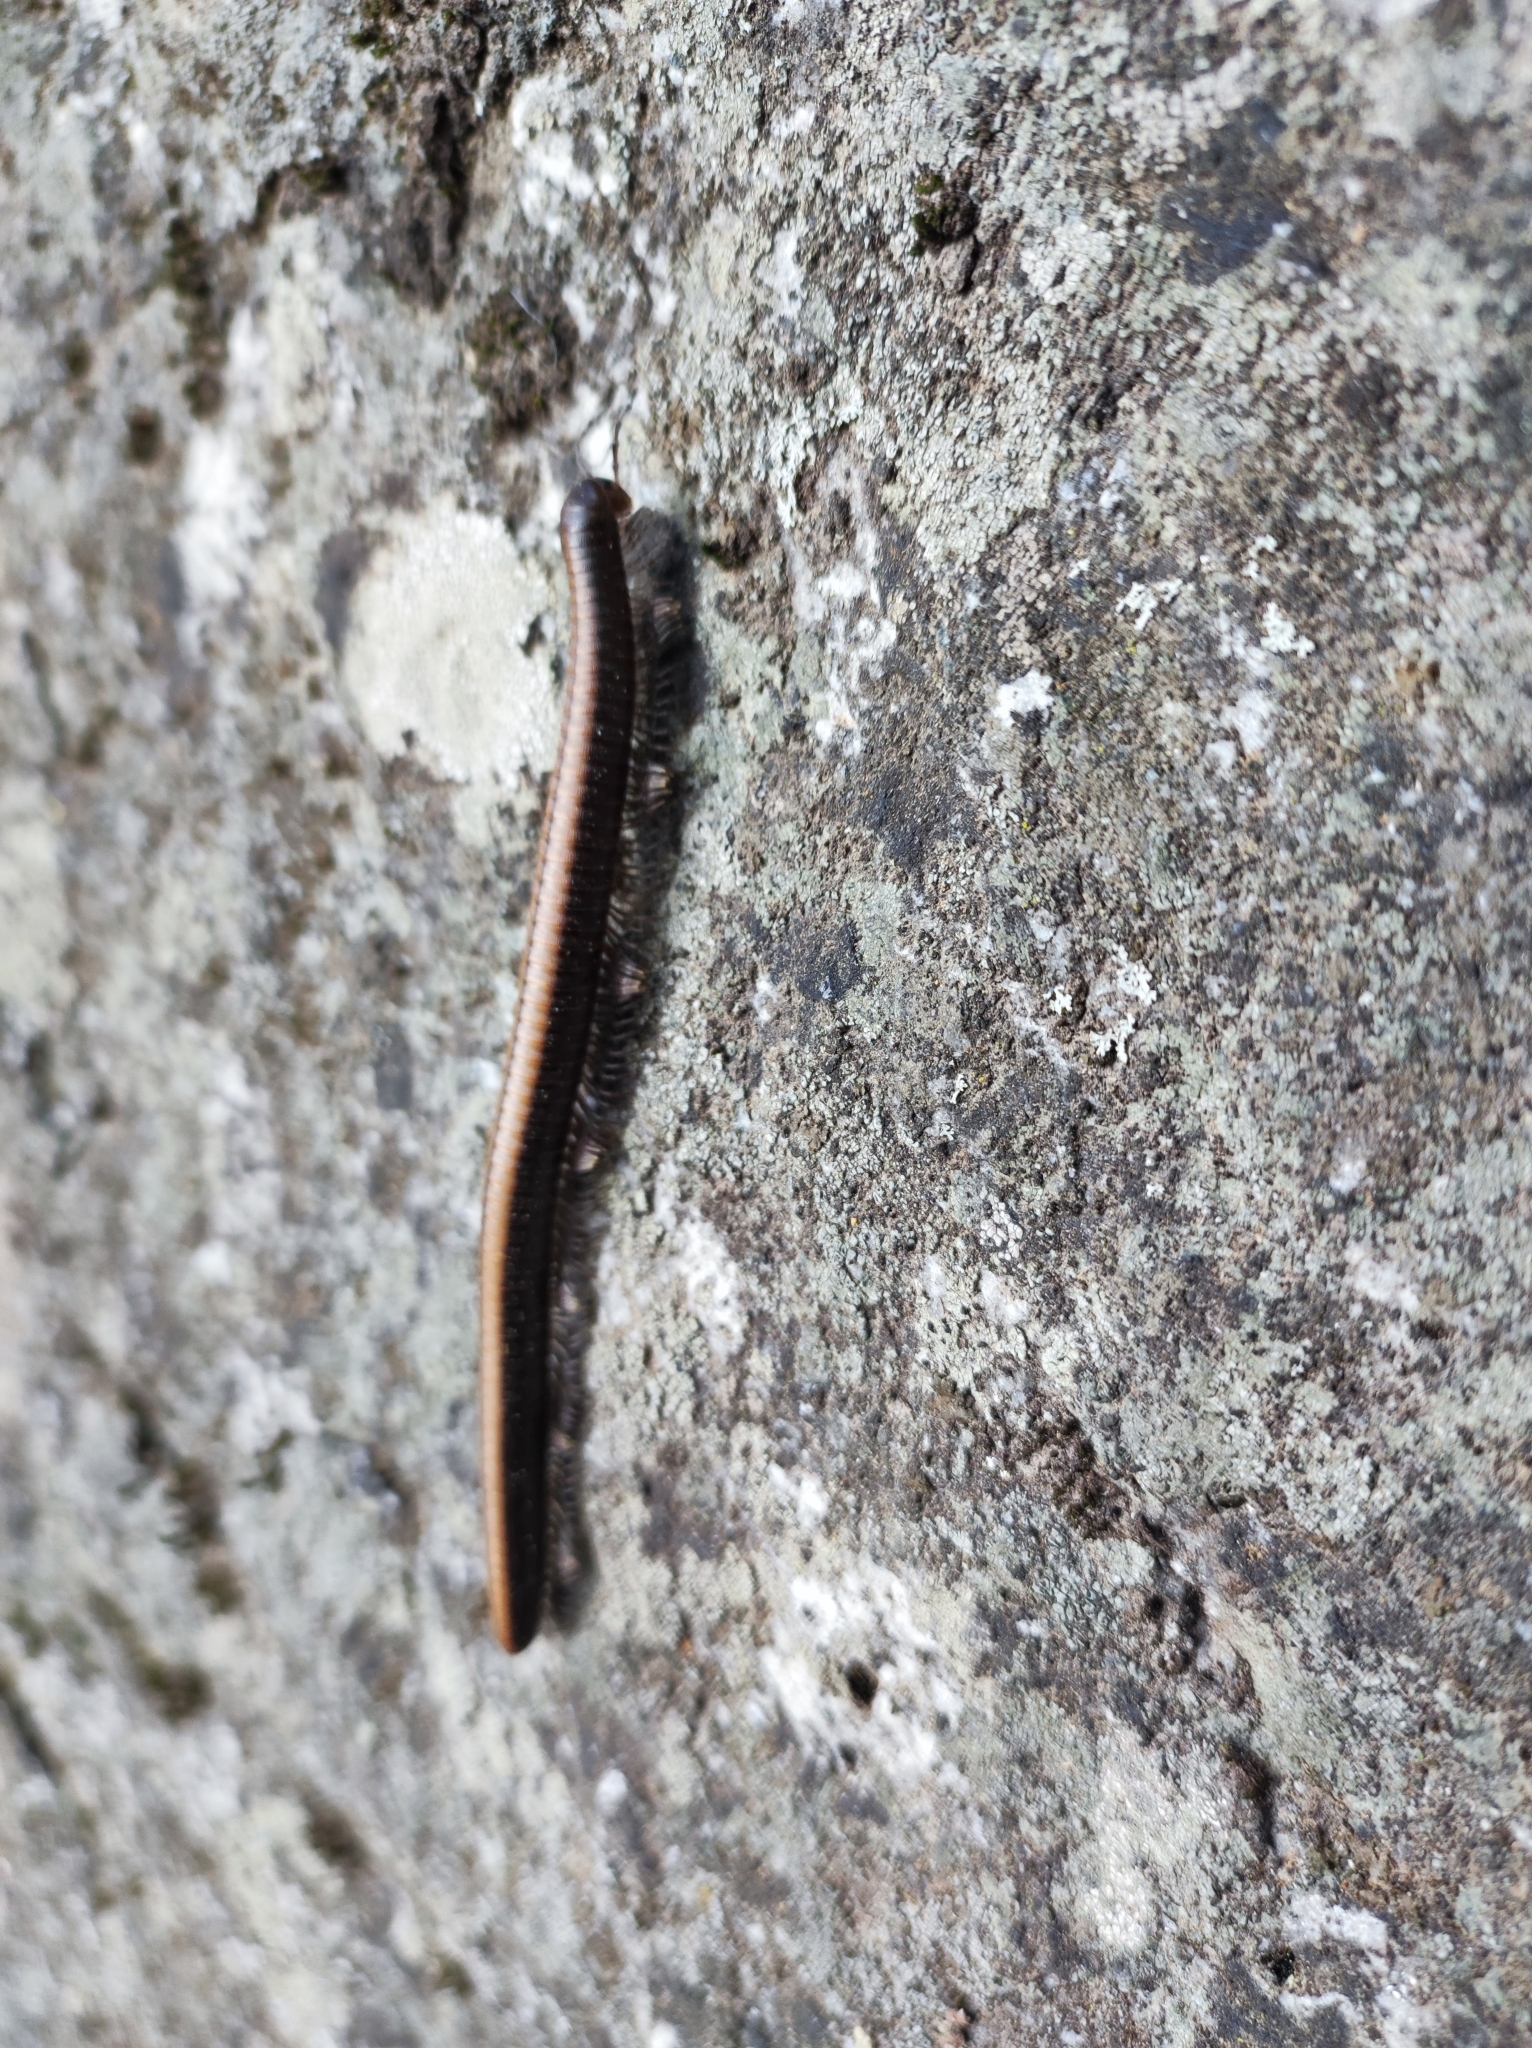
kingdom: Animalia
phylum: Arthropoda
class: Diplopoda
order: Julida
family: Paeromopodidae
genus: Californiulus
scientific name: Californiulus yosemitensis
